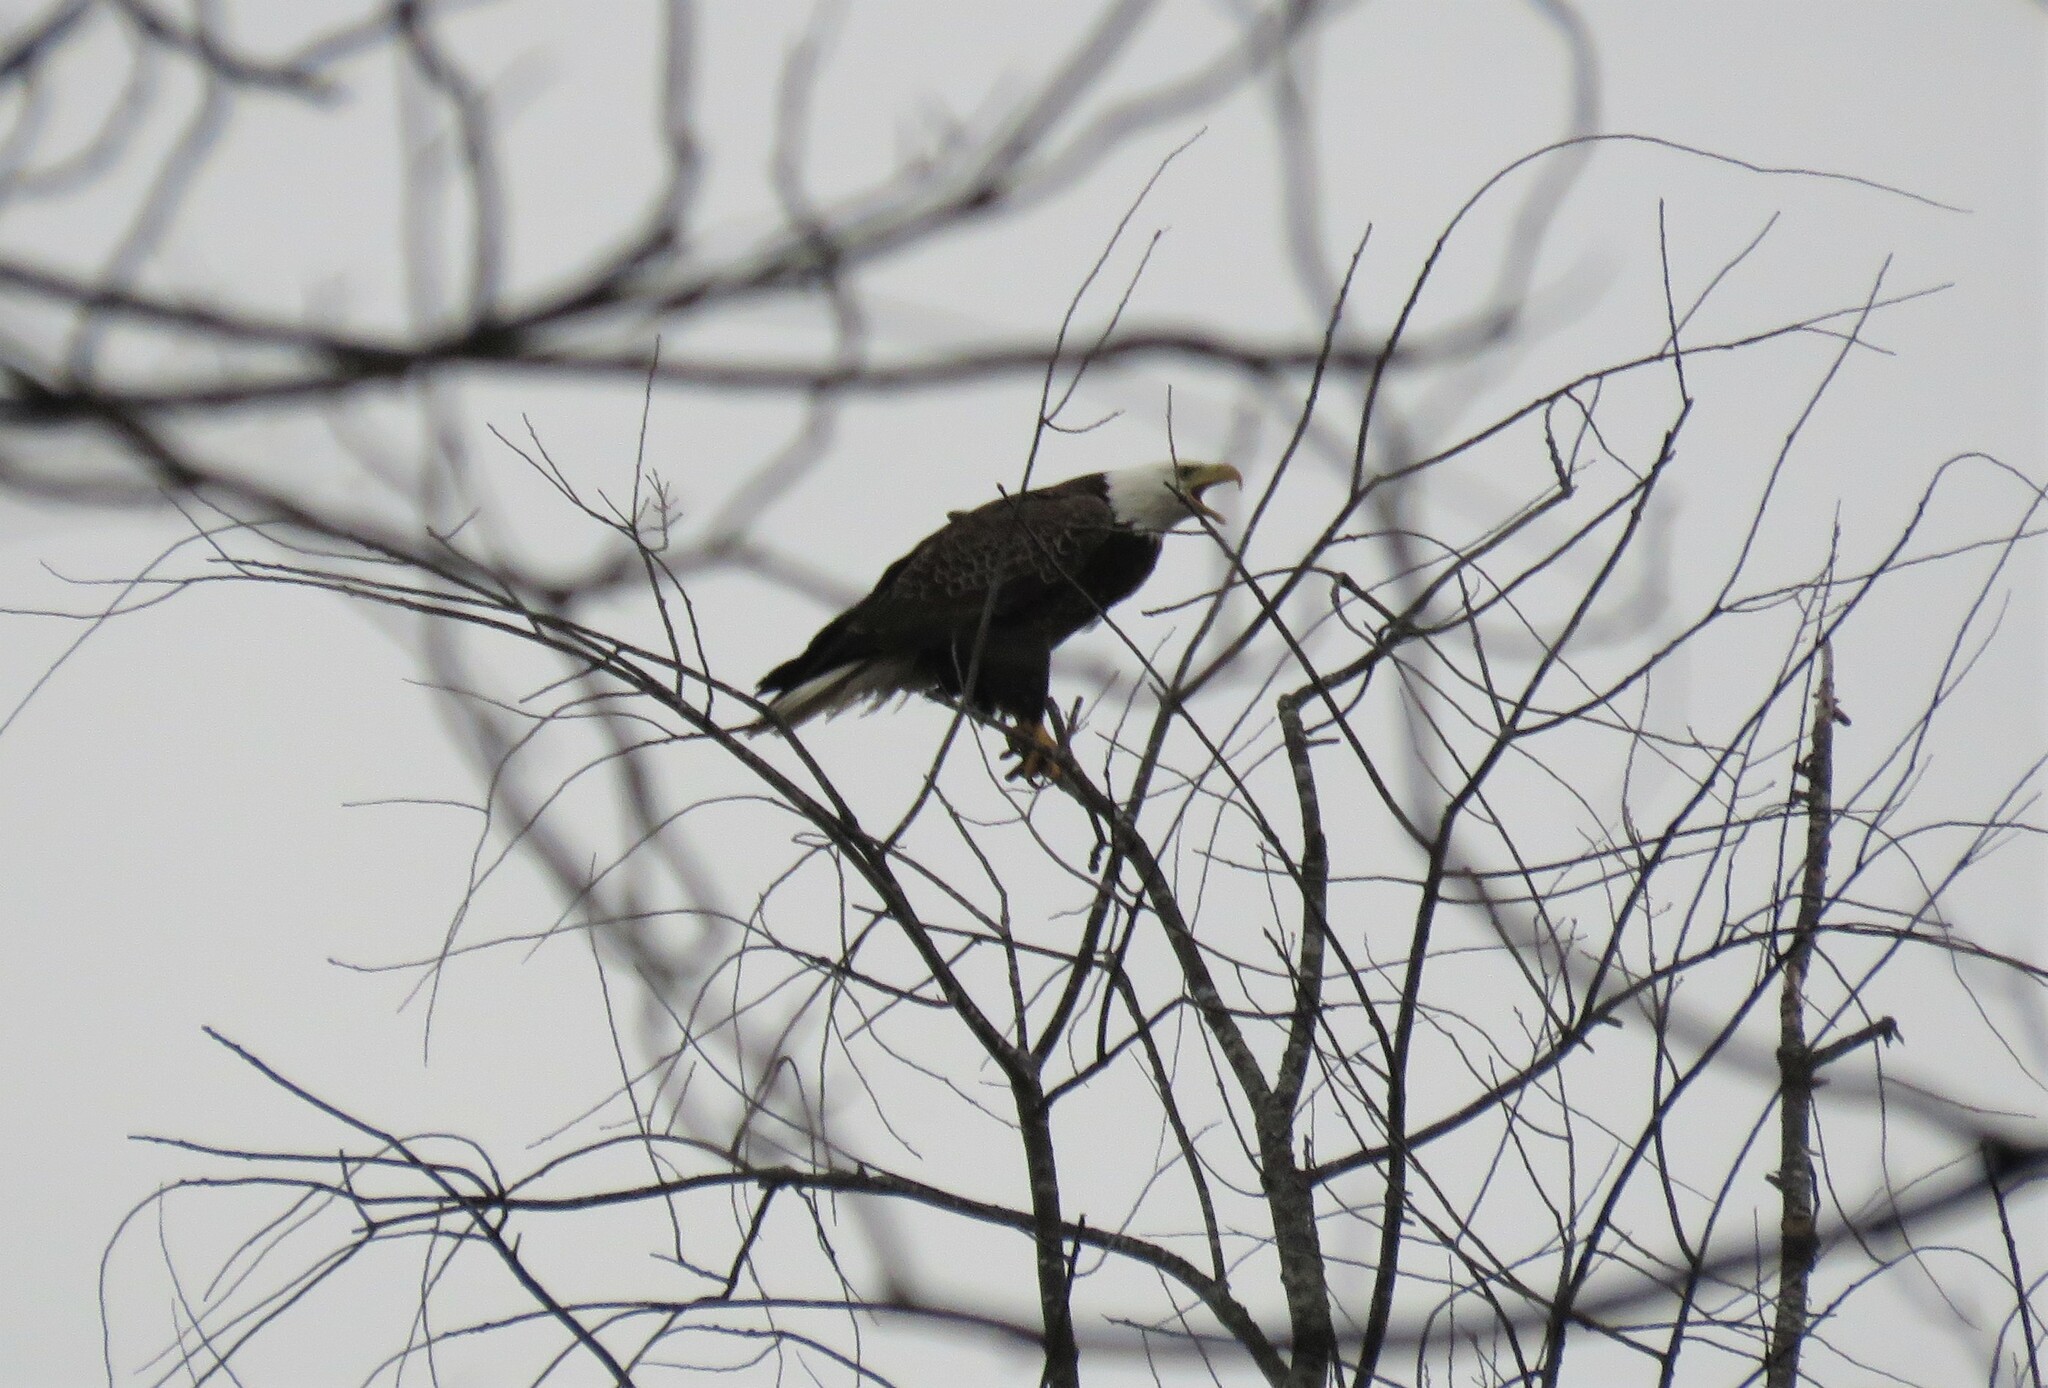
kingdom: Animalia
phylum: Chordata
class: Aves
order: Accipitriformes
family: Accipitridae
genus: Haliaeetus
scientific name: Haliaeetus leucocephalus
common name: Bald eagle
